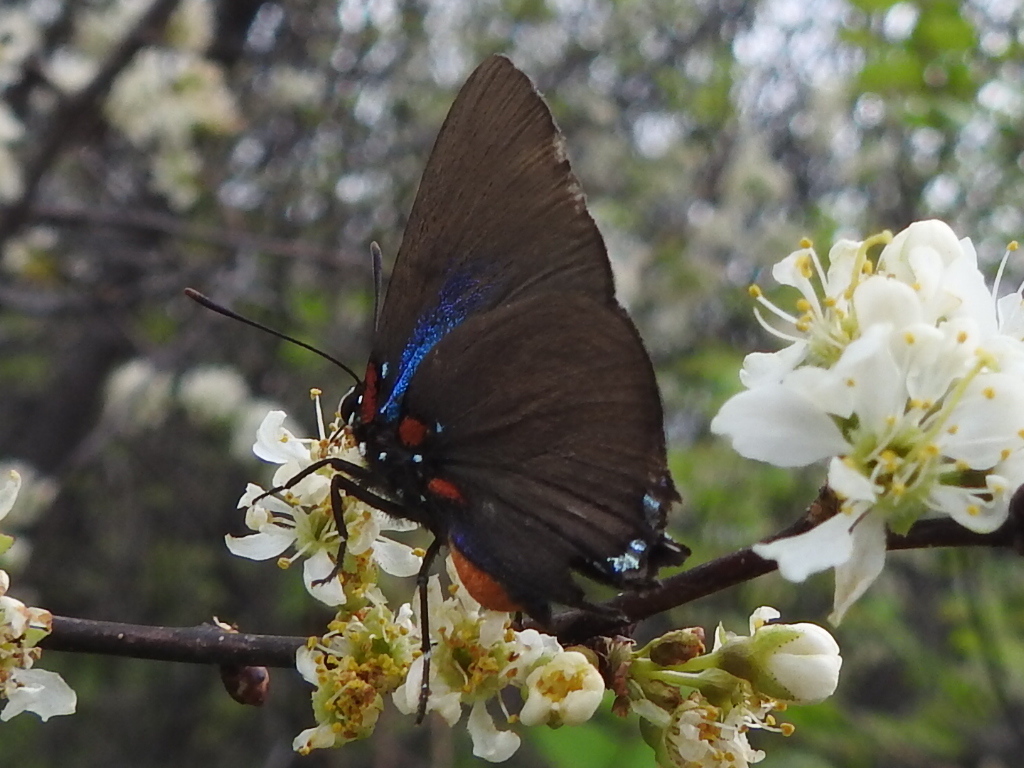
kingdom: Animalia
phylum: Arthropoda
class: Insecta
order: Lepidoptera
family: Lycaenidae
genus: Atlides
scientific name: Atlides halesus
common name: Great purple hairstreak
